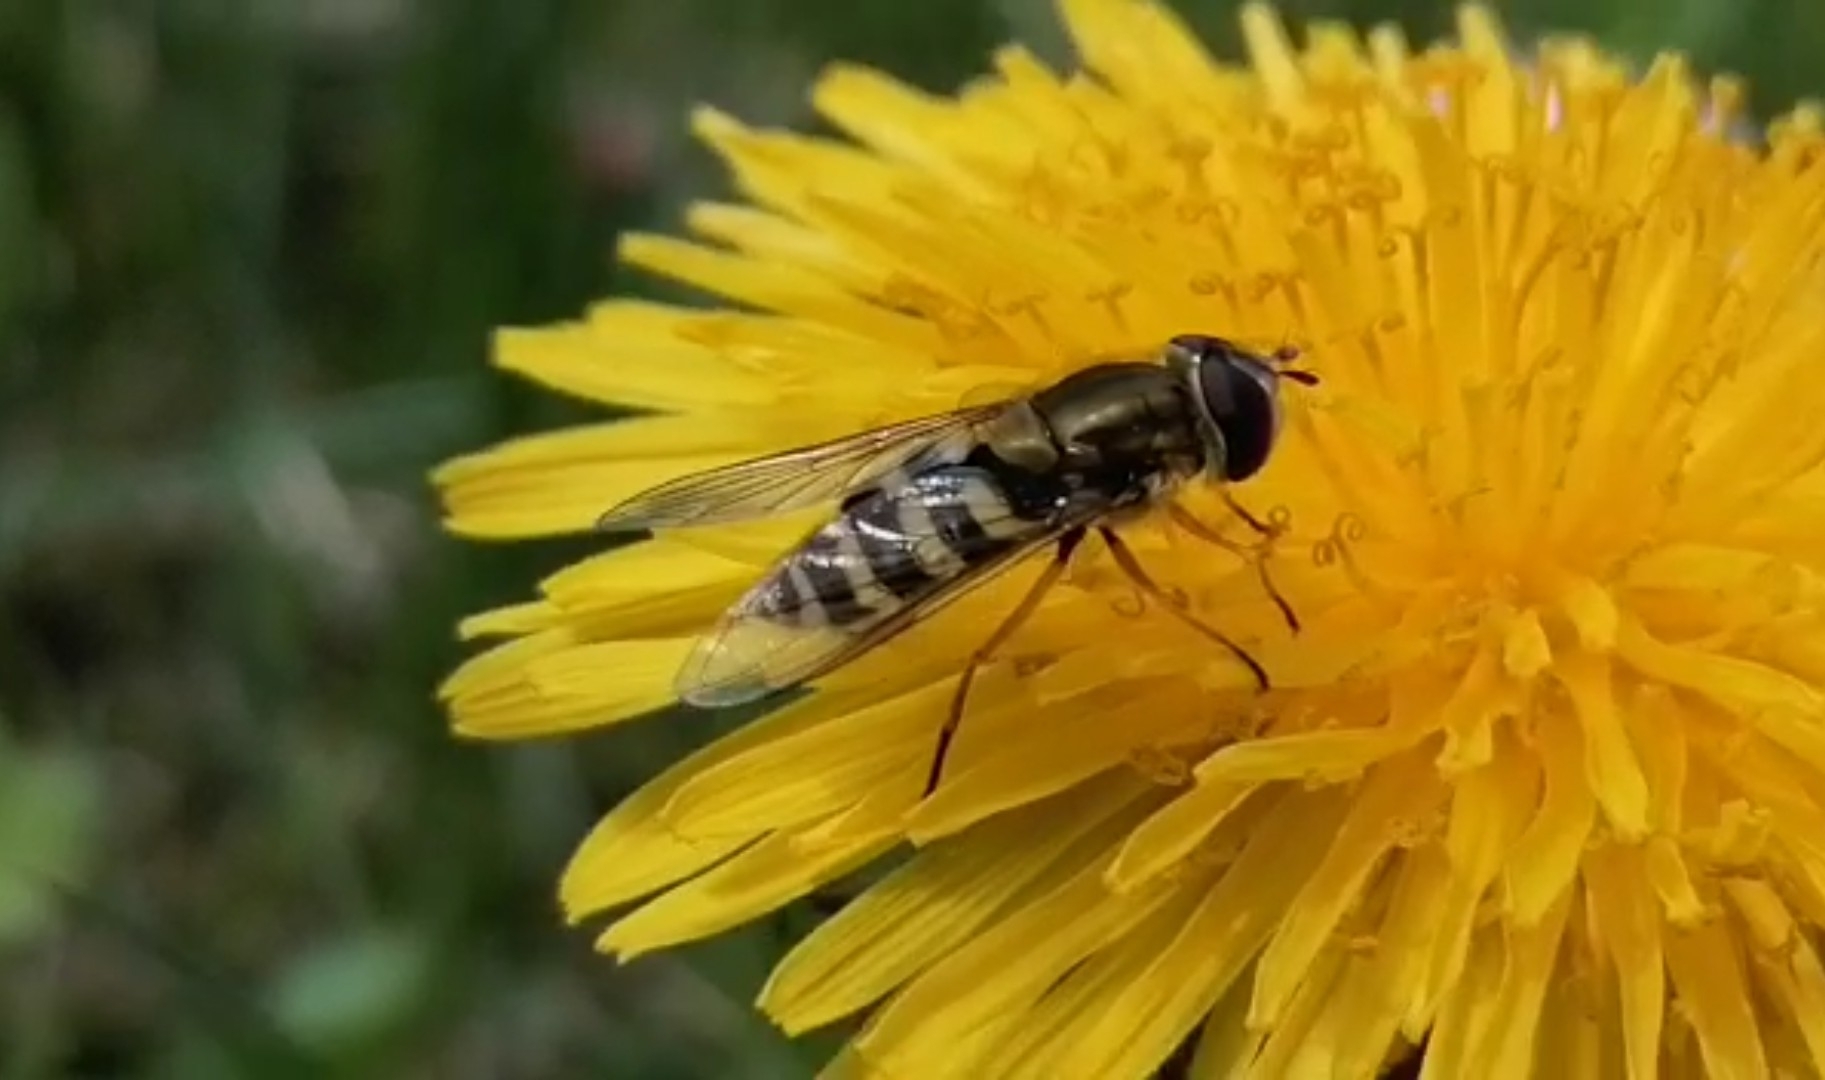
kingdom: Animalia
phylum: Arthropoda
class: Insecta
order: Diptera
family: Syrphidae
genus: Syrphus
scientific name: Syrphus ribesii
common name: Common flower fly
